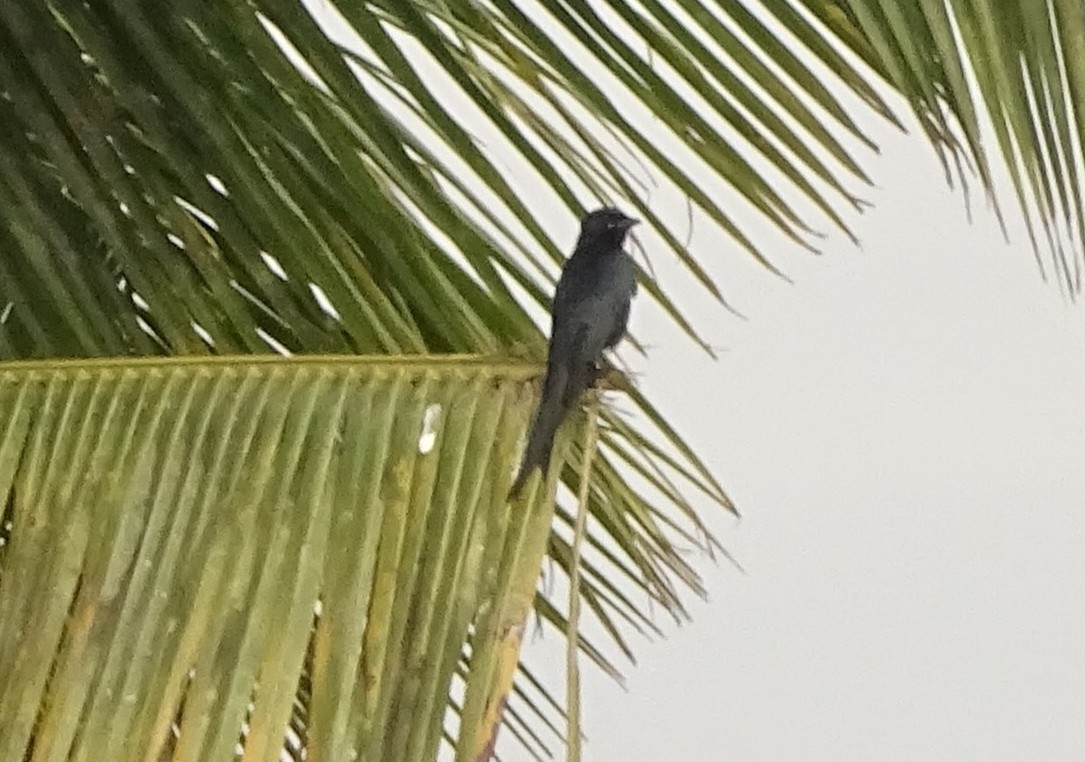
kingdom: Animalia
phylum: Chordata
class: Aves
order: Passeriformes
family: Dicruridae
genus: Dicrurus
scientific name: Dicrurus macrocercus
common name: Black drongo
